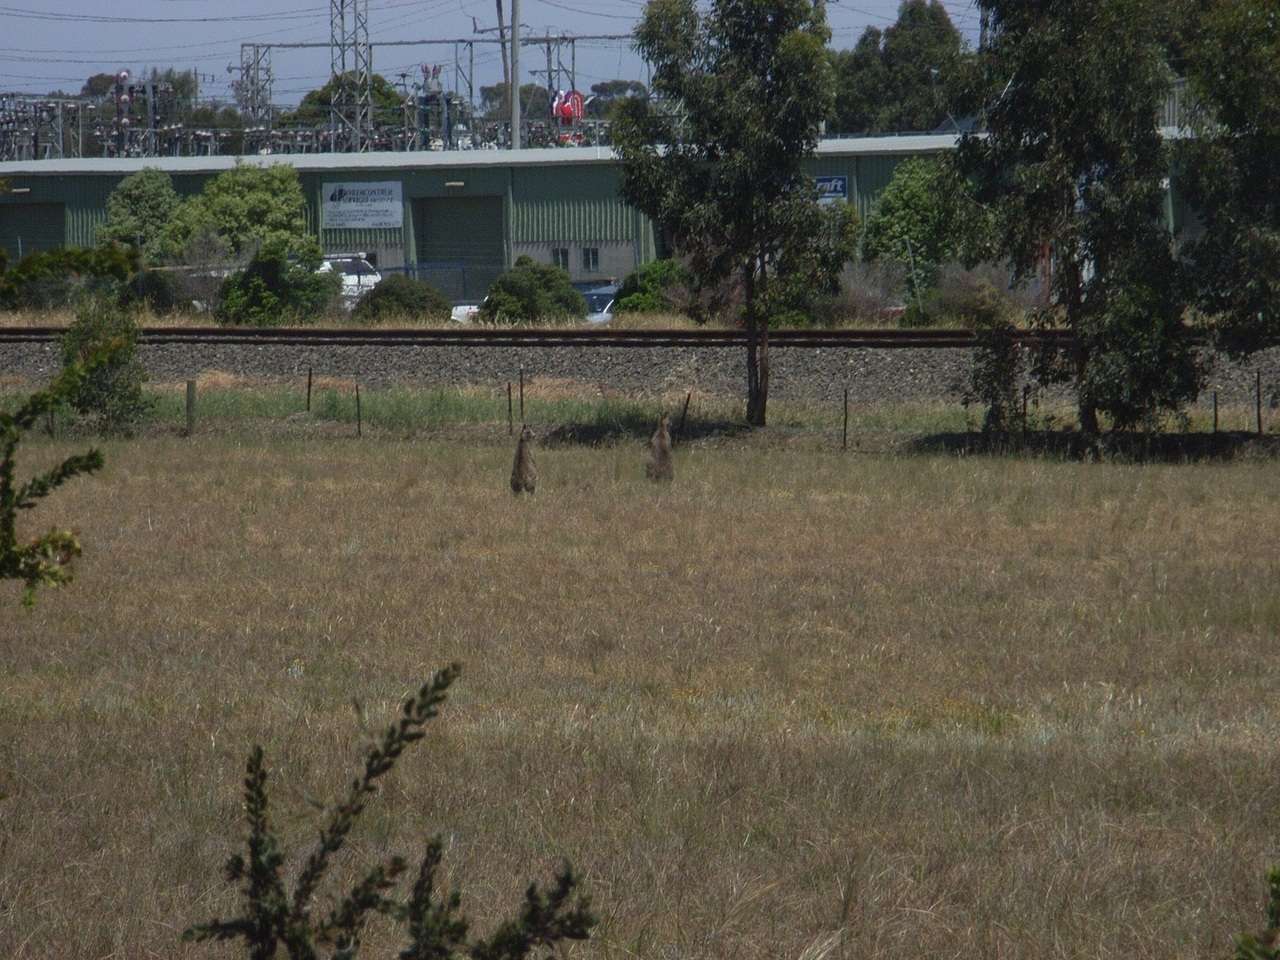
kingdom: Animalia
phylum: Chordata
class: Mammalia
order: Diprotodontia
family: Macropodidae
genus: Macropus
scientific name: Macropus giganteus
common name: Eastern grey kangaroo
